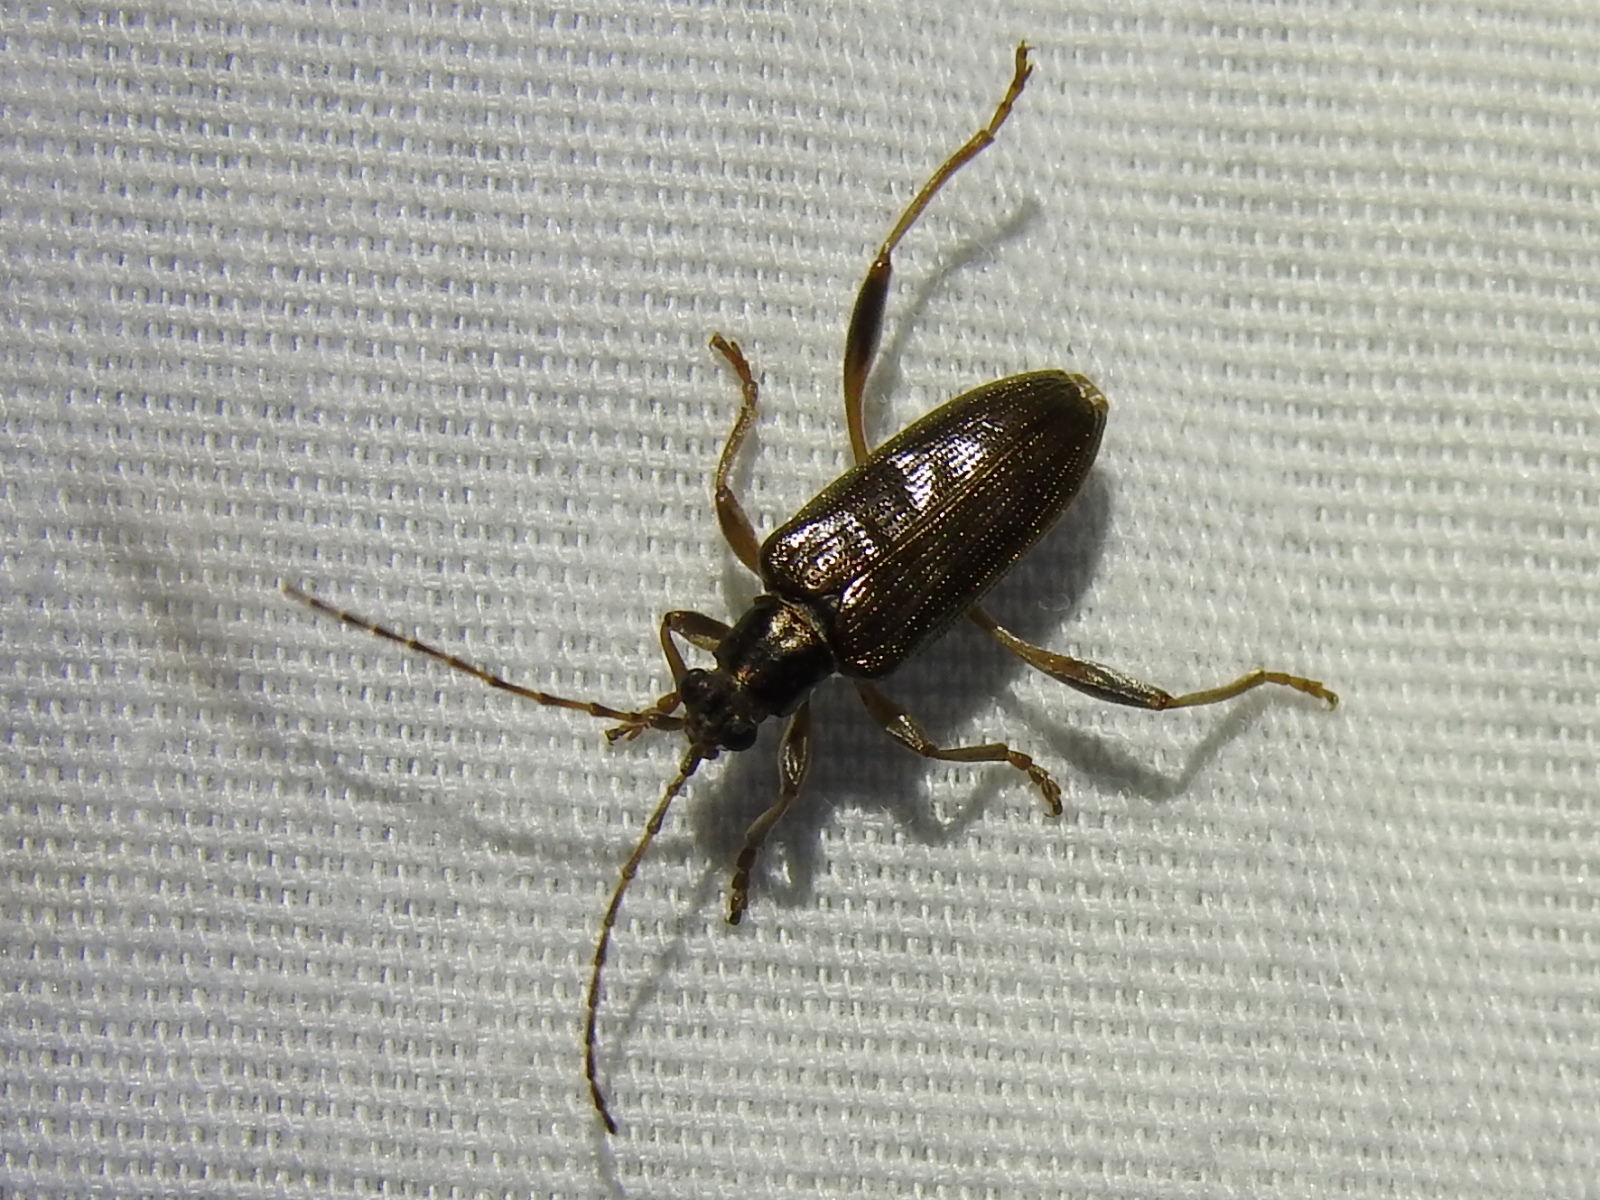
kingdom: Animalia
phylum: Arthropoda
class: Insecta
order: Coleoptera
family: Chrysomelidae
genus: Donacia
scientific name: Donacia hypoleuca
